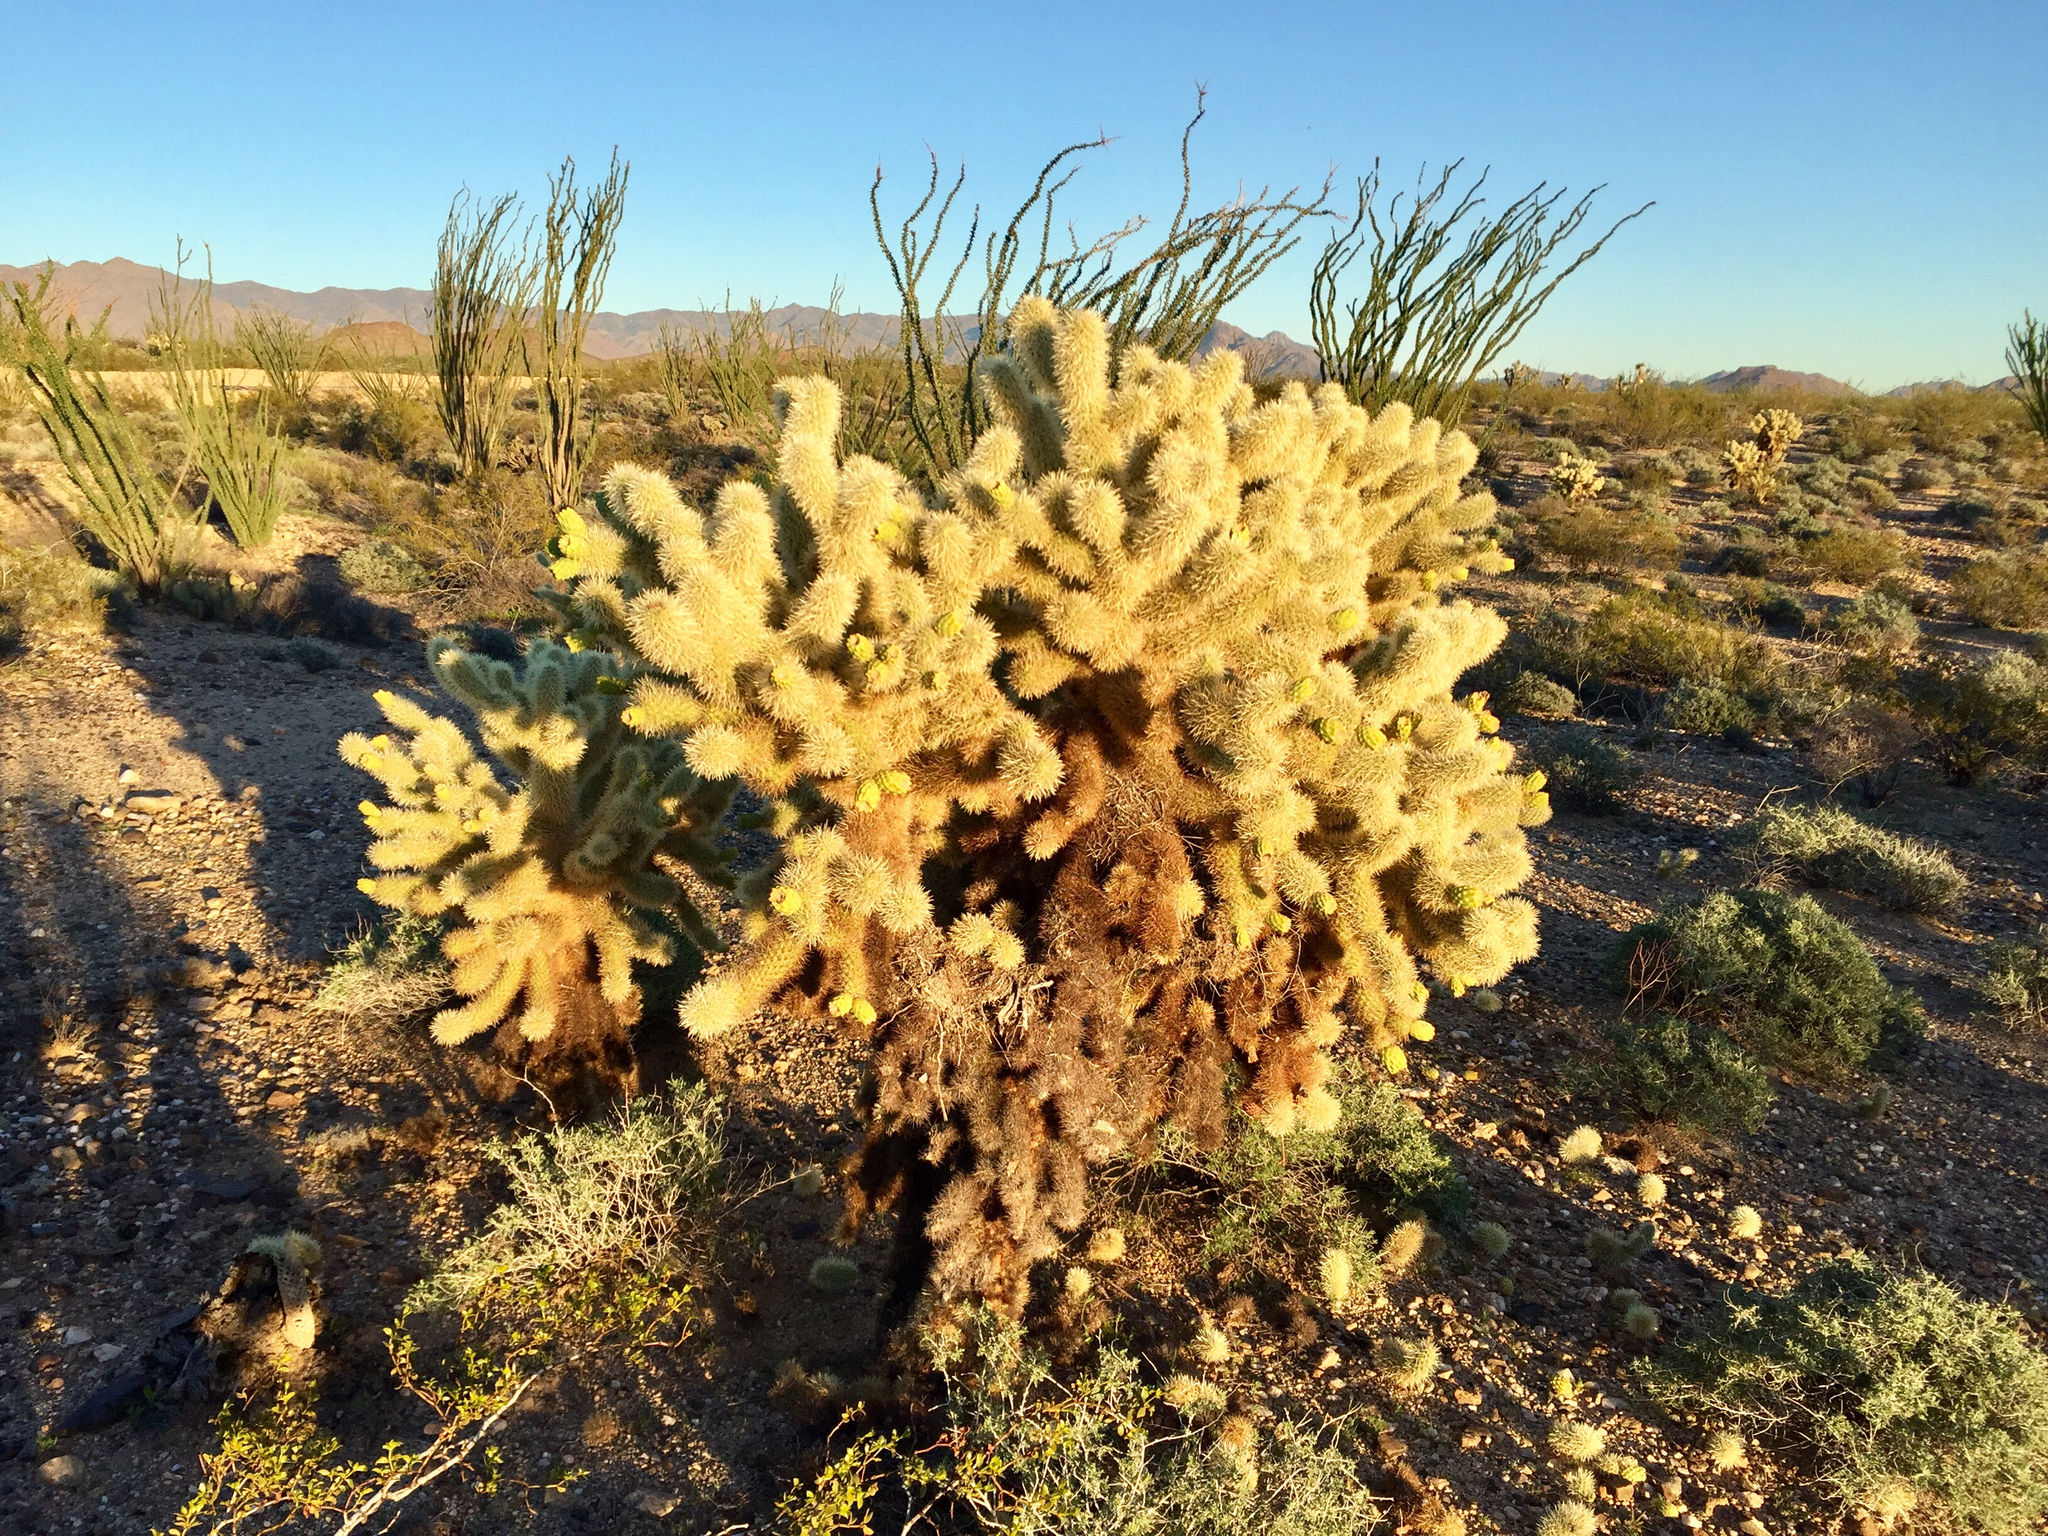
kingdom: Plantae
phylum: Tracheophyta
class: Magnoliopsida
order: Caryophyllales
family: Cactaceae
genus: Cylindropuntia
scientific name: Cylindropuntia fosbergii
